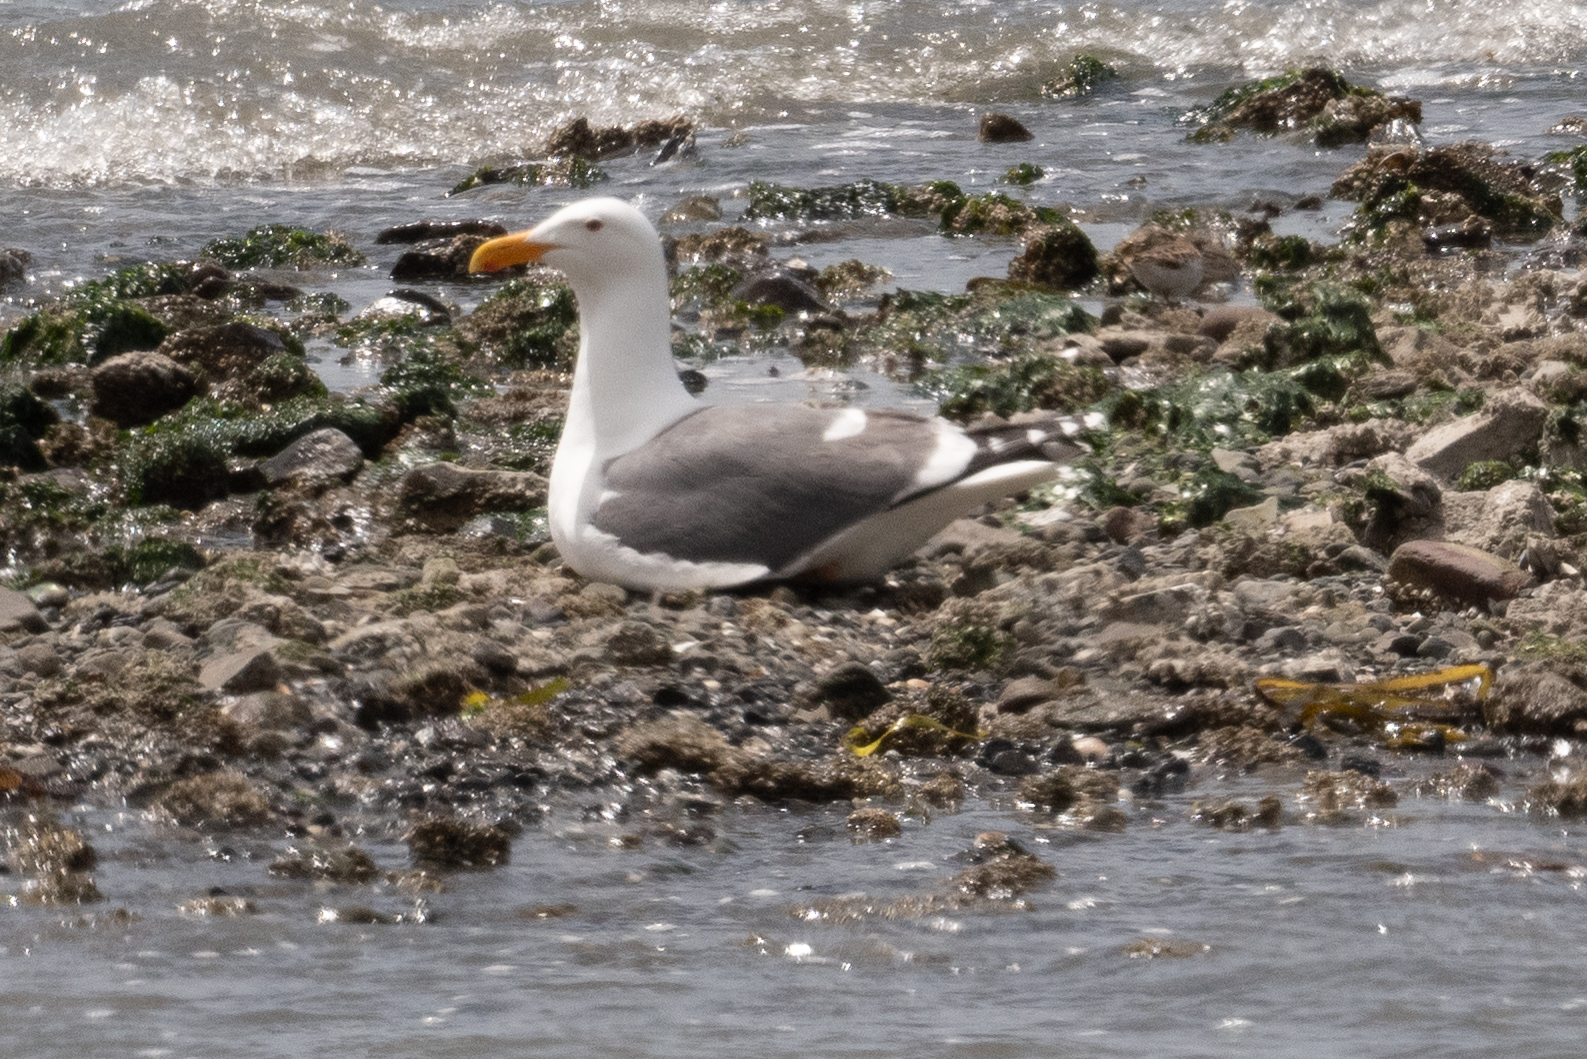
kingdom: Animalia
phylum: Chordata
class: Aves
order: Charadriiformes
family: Laridae
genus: Larus
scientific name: Larus occidentalis
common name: Western gull
